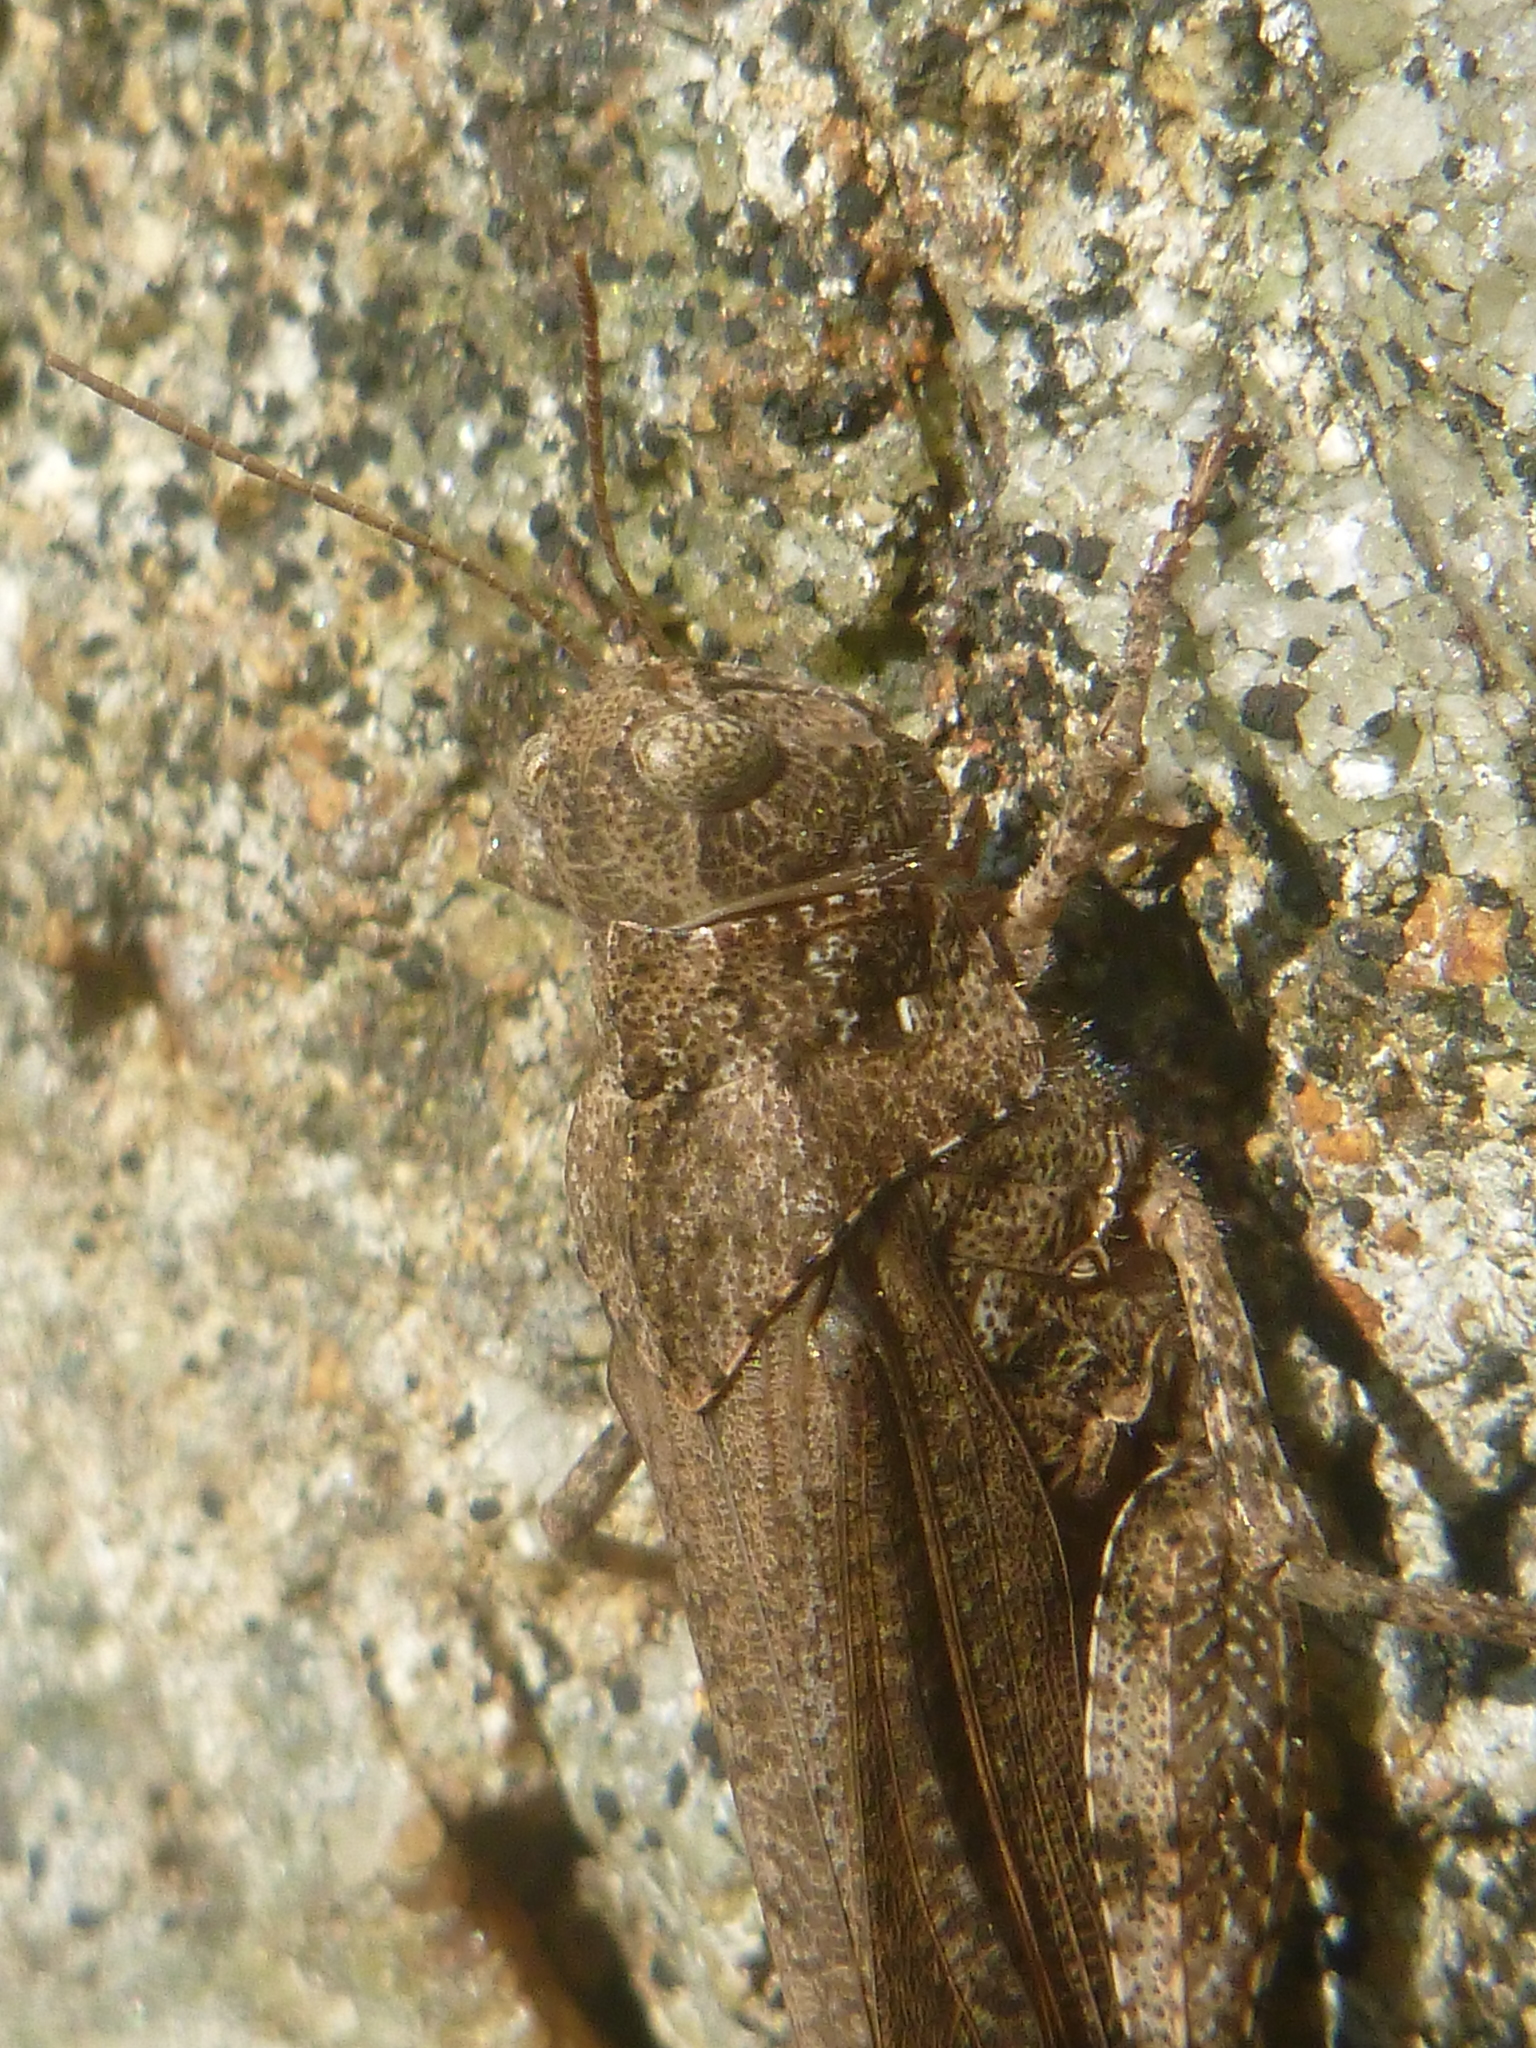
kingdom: Animalia
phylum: Arthropoda
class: Insecta
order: Orthoptera
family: Acrididae
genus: Dissosteira
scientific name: Dissosteira carolina
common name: Carolina grasshopper
